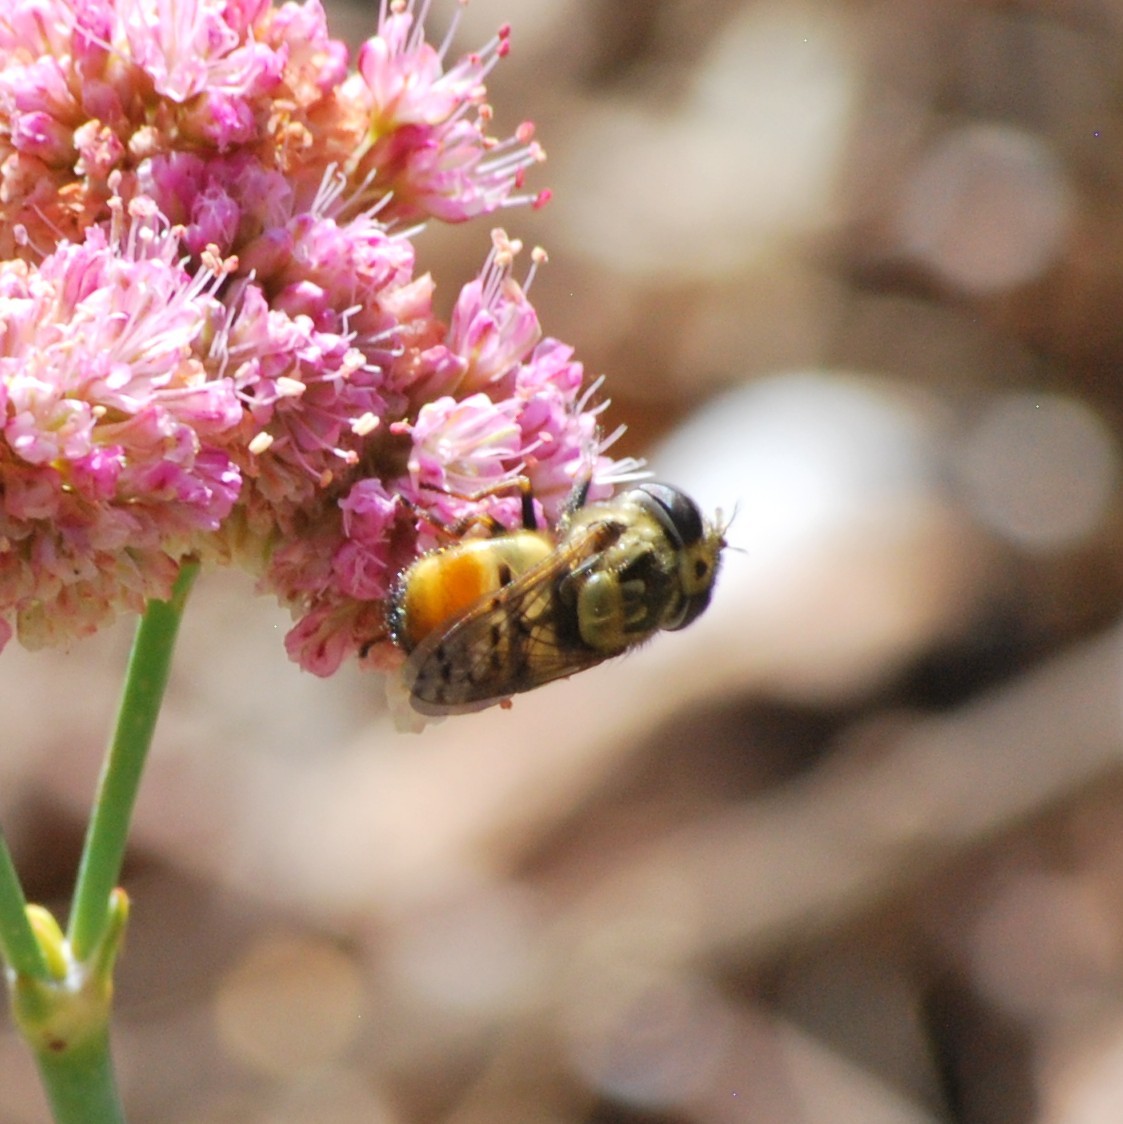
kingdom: Animalia
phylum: Arthropoda
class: Insecta
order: Diptera
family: Syrphidae
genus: Copestylum
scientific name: Copestylum satur
